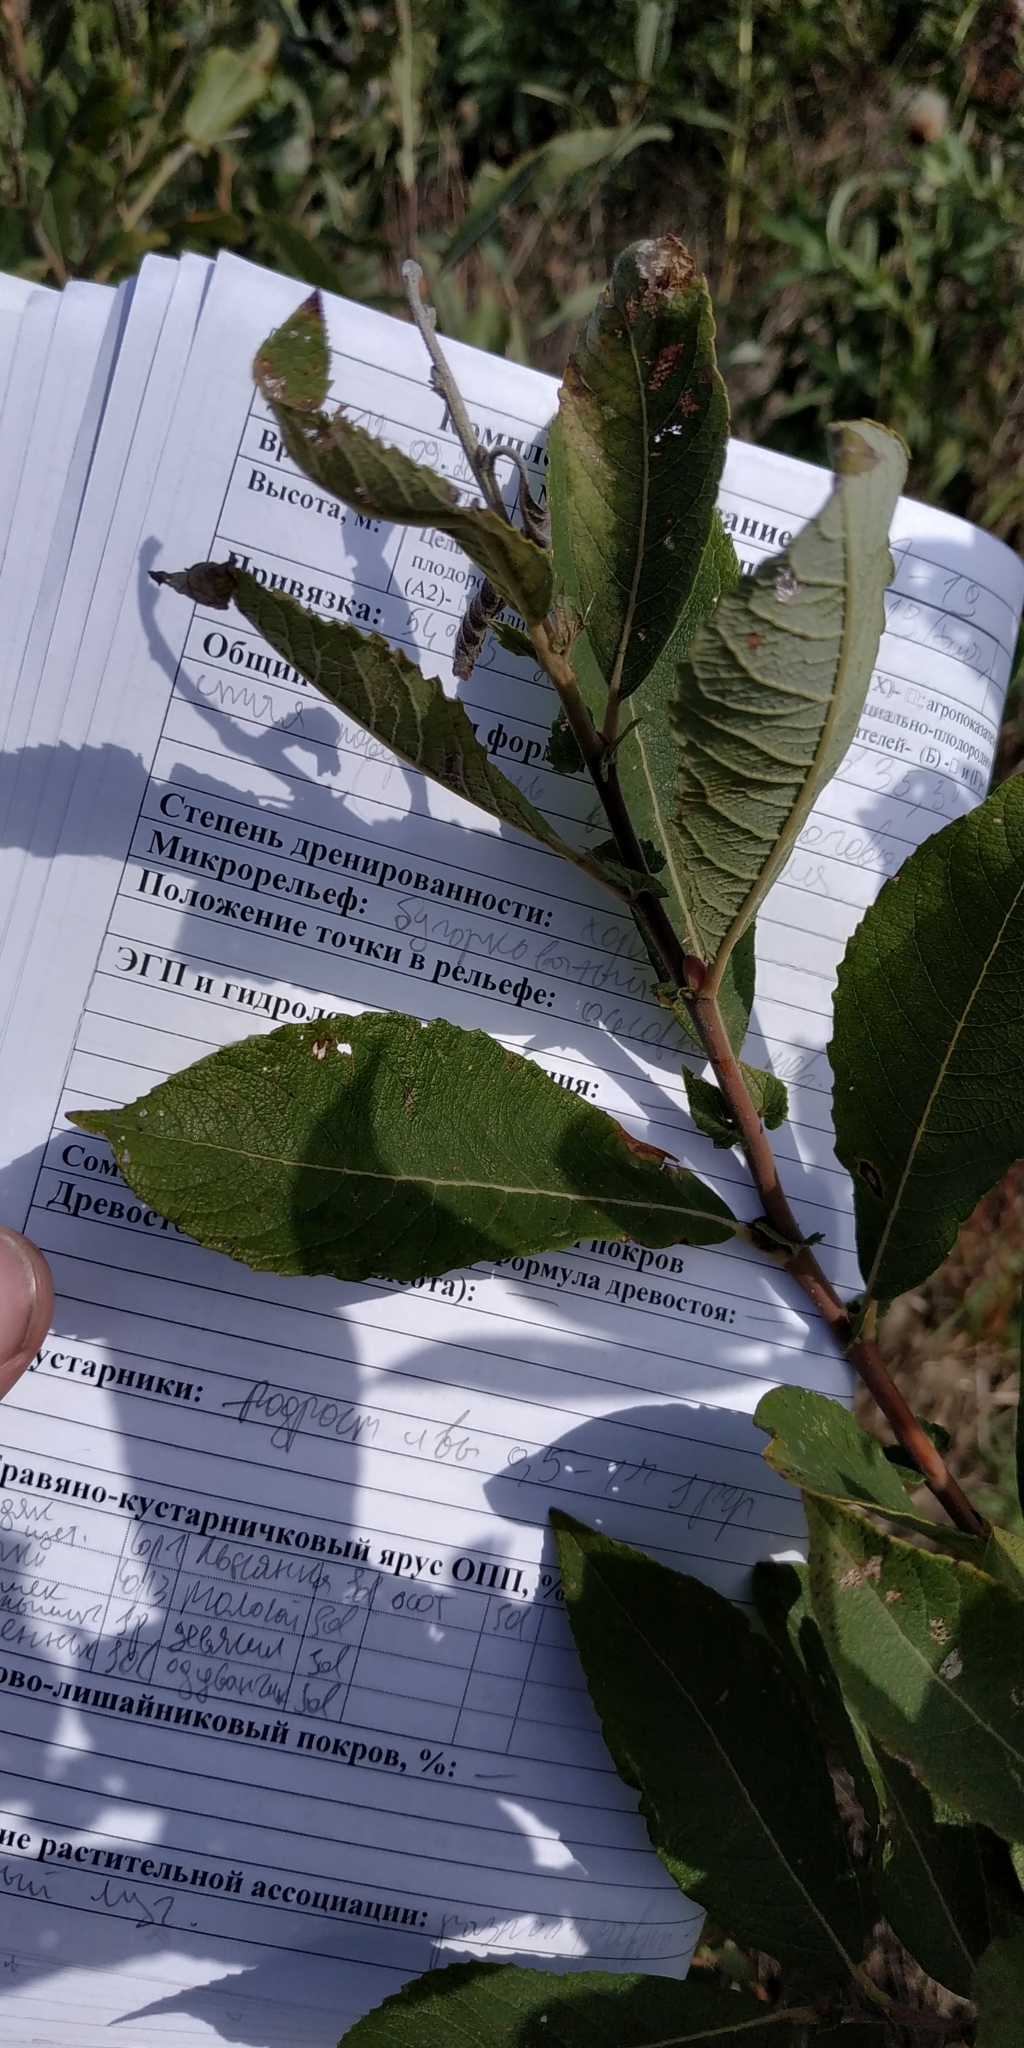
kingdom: Plantae
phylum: Tracheophyta
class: Magnoliopsida
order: Malpighiales
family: Salicaceae
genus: Salix
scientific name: Salix cinerea
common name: Common sallow
